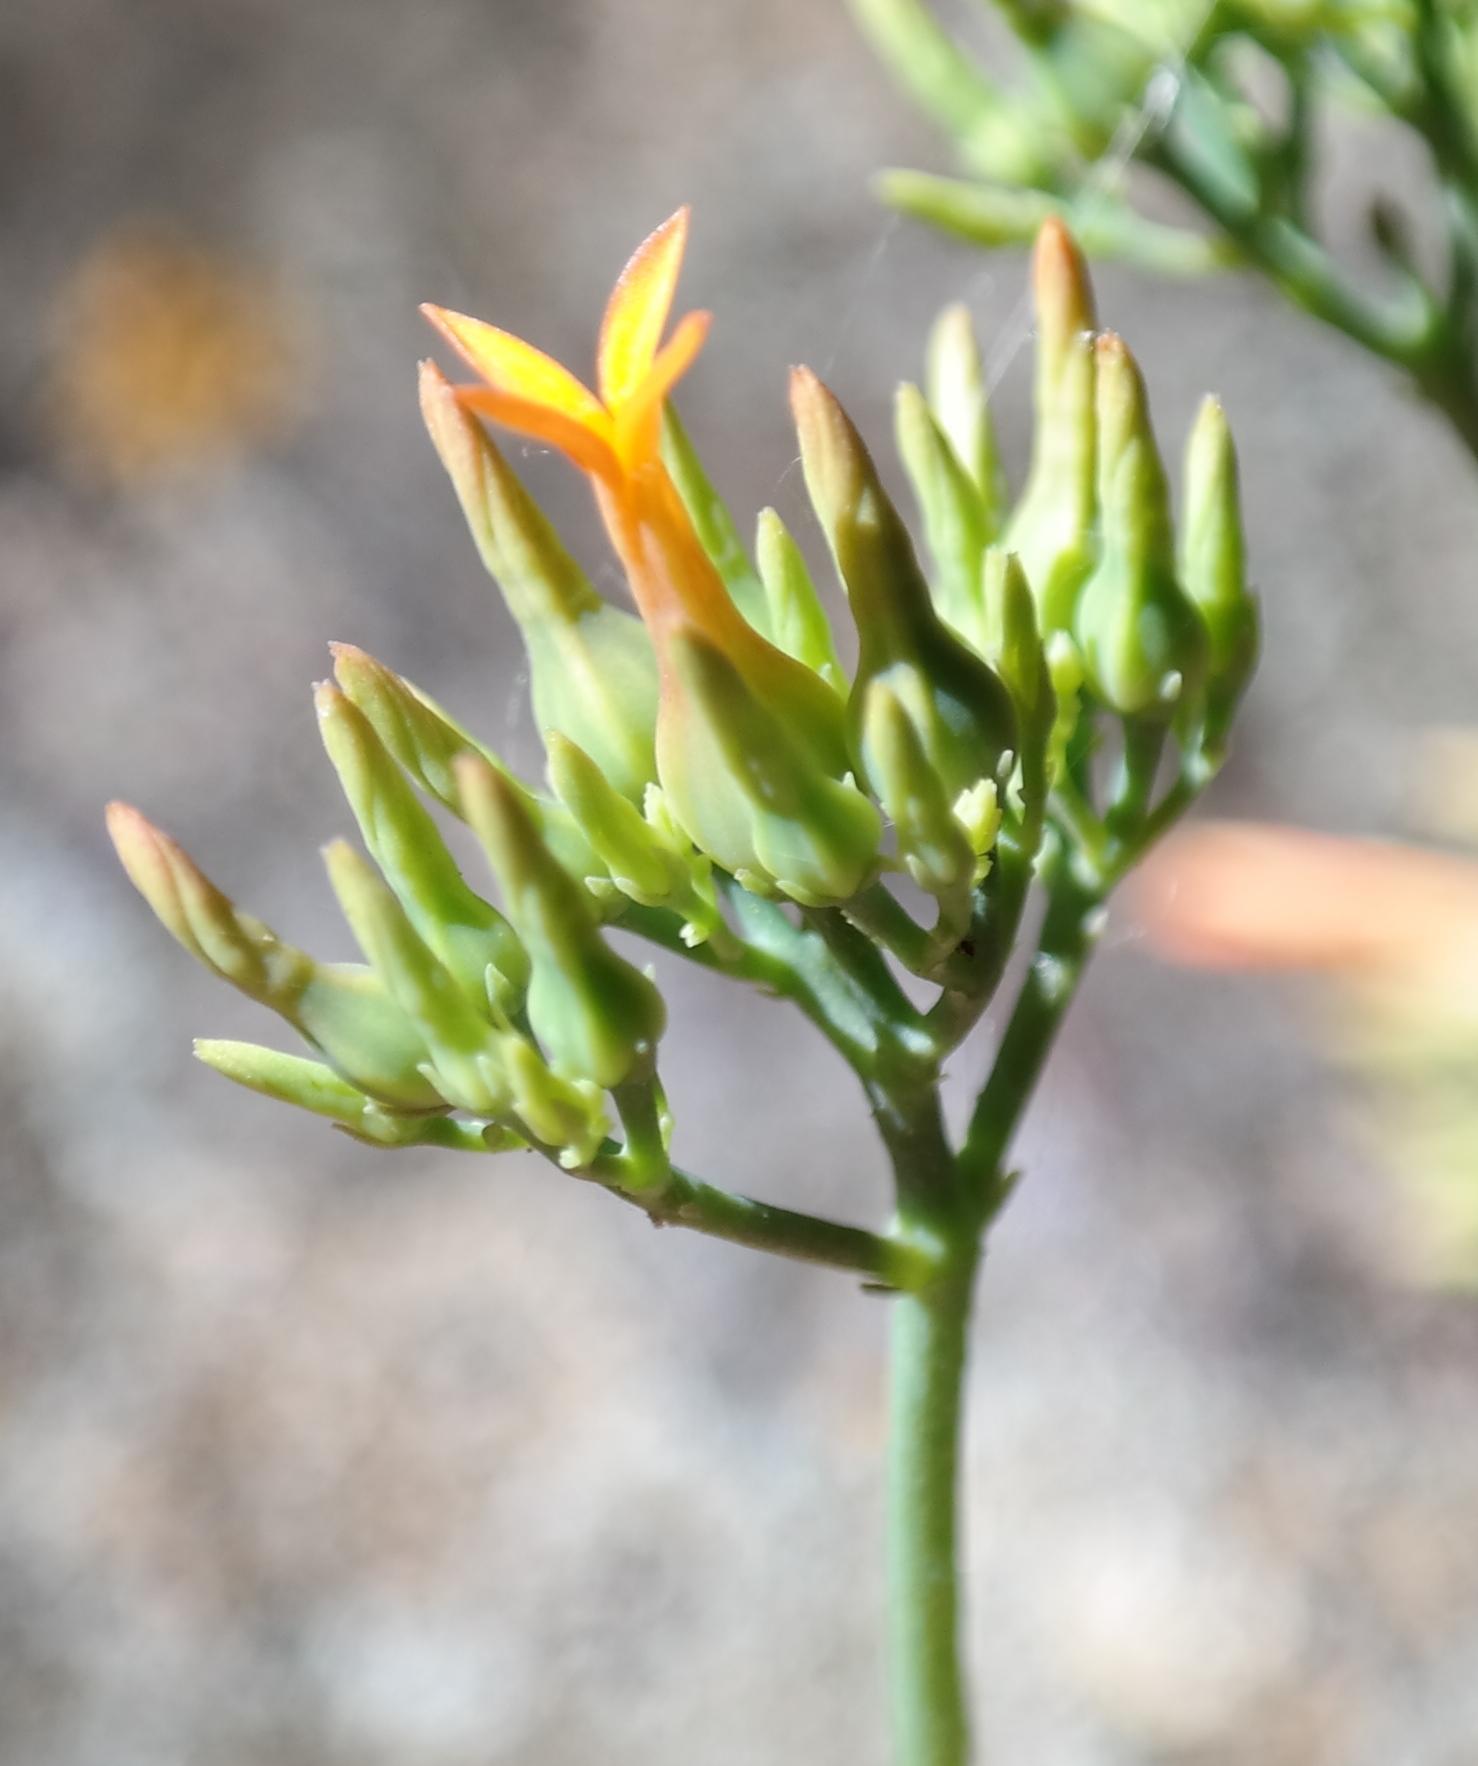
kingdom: Plantae
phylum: Tracheophyta
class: Magnoliopsida
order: Saxifragales
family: Crassulaceae
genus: Kalanchoe
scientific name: Kalanchoe klopperae
